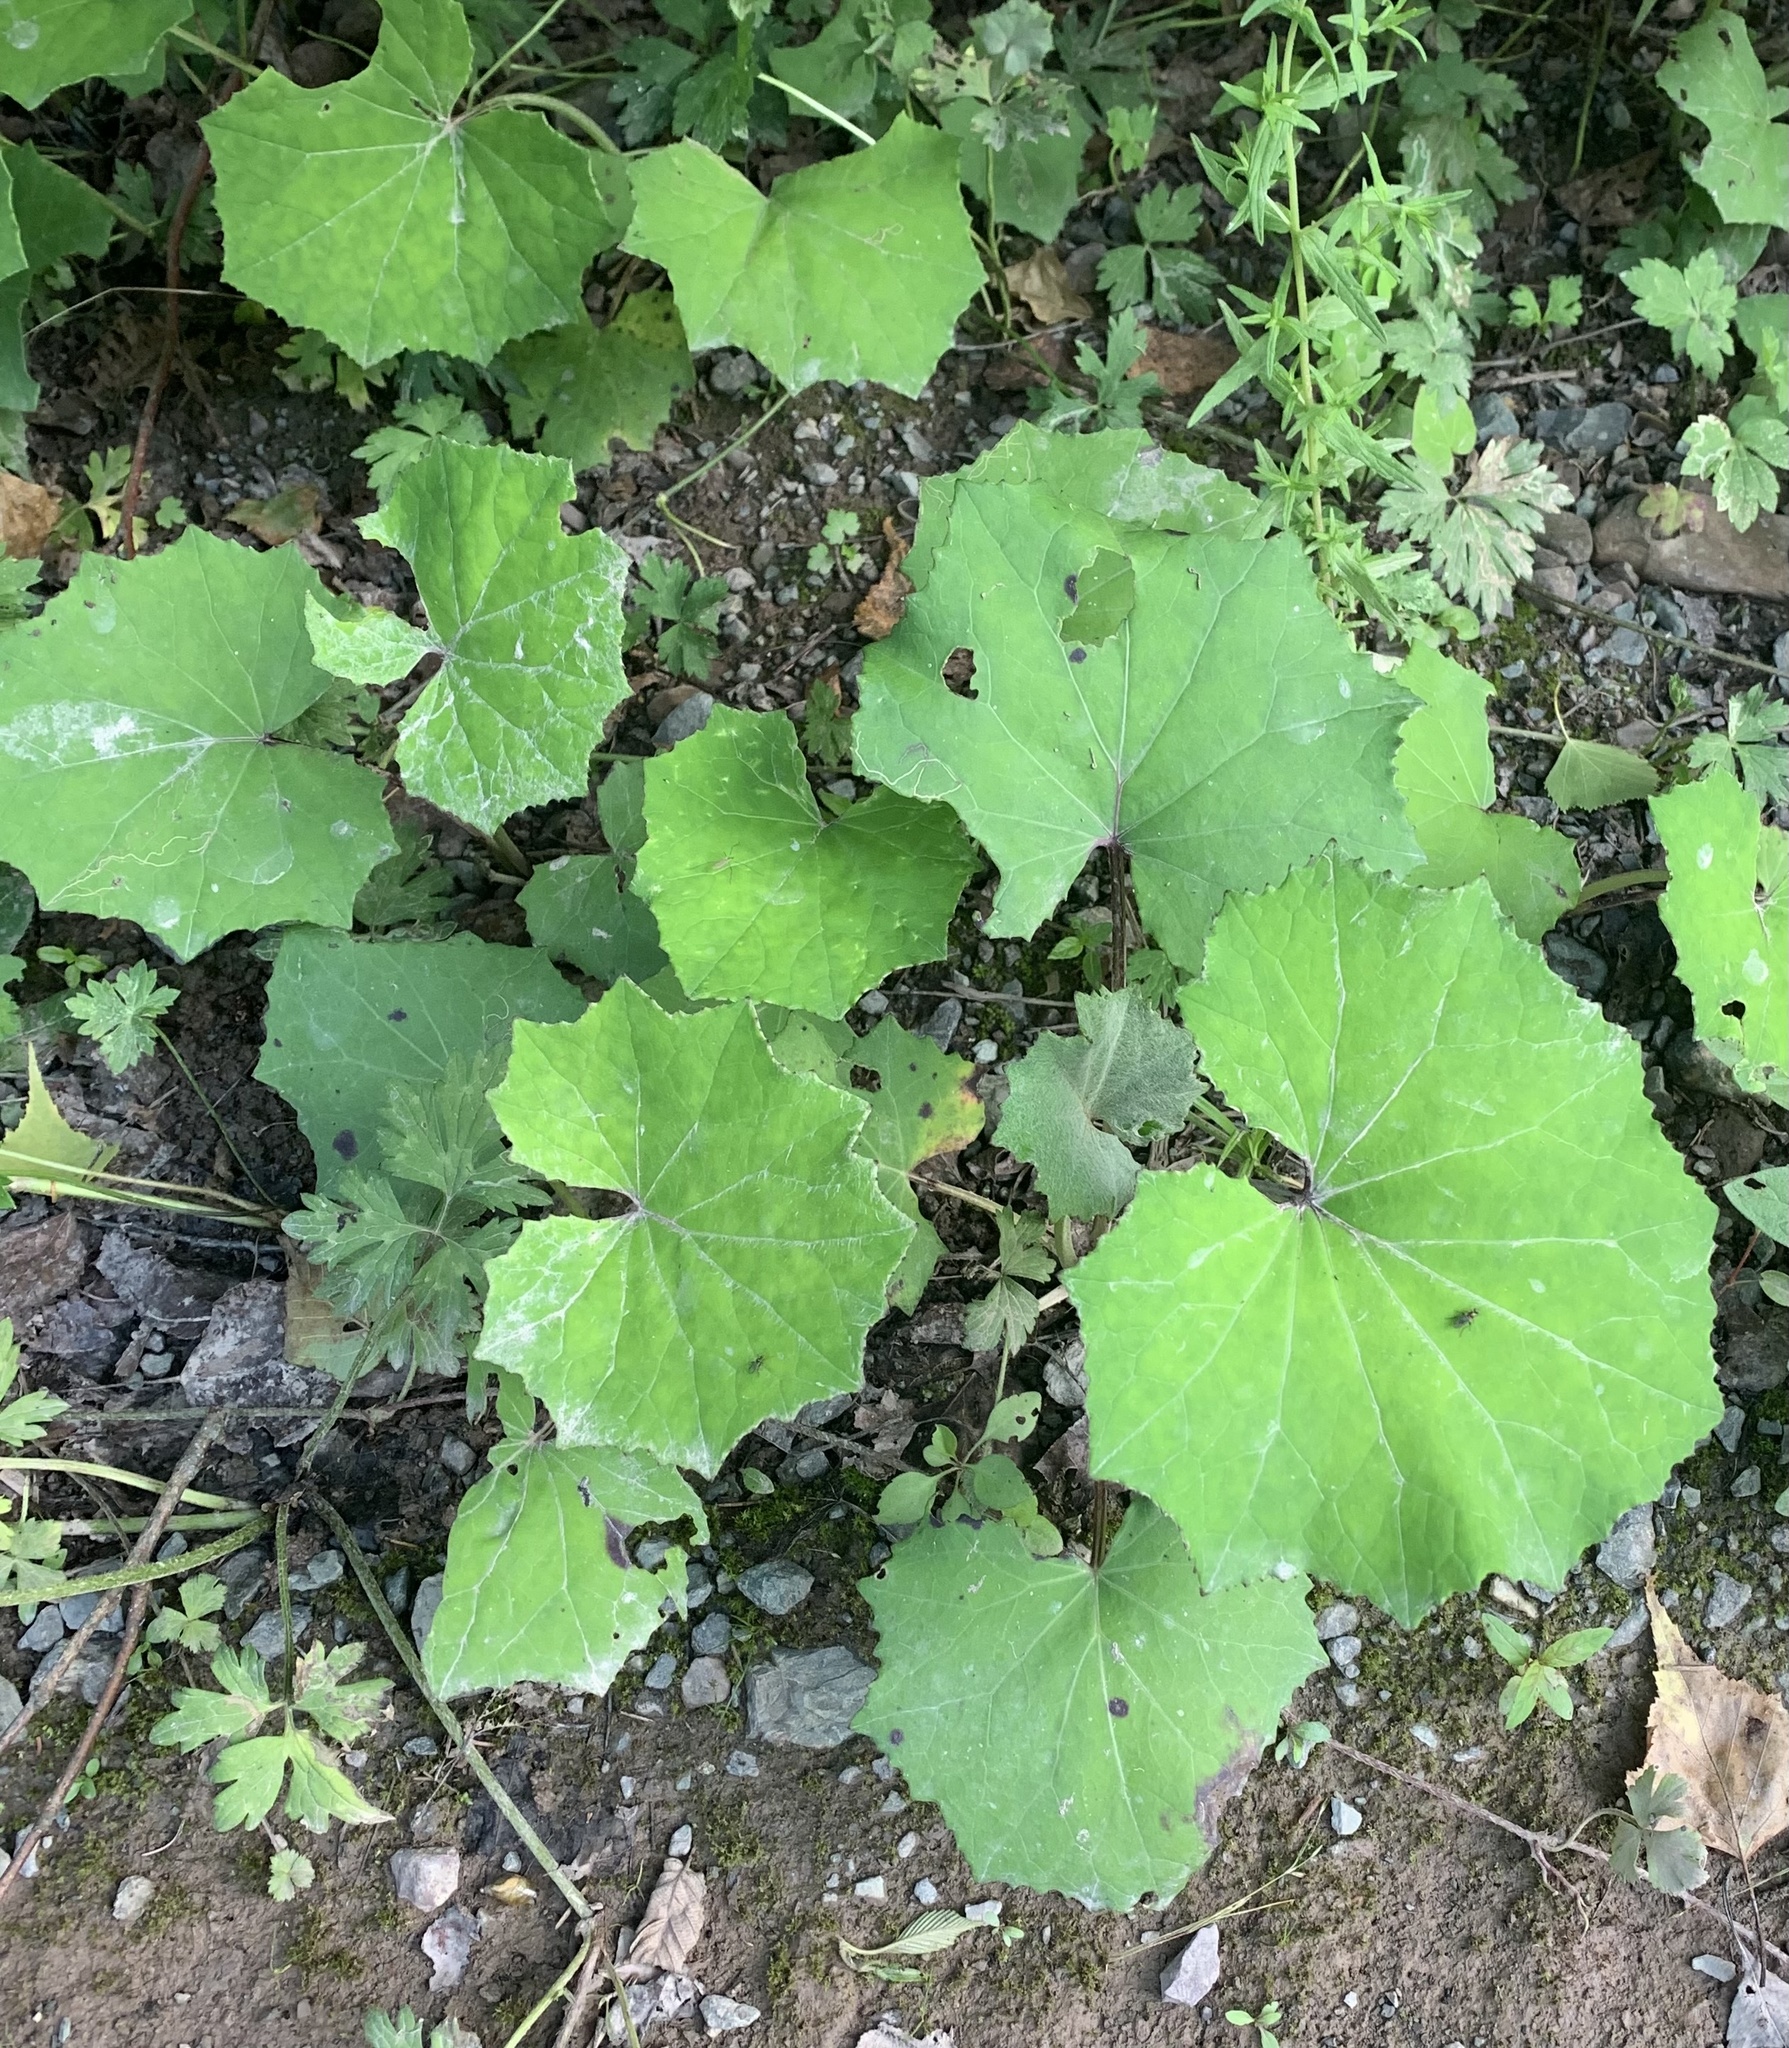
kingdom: Plantae
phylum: Tracheophyta
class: Magnoliopsida
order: Asterales
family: Asteraceae
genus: Tussilago
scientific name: Tussilago farfara
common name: Coltsfoot
